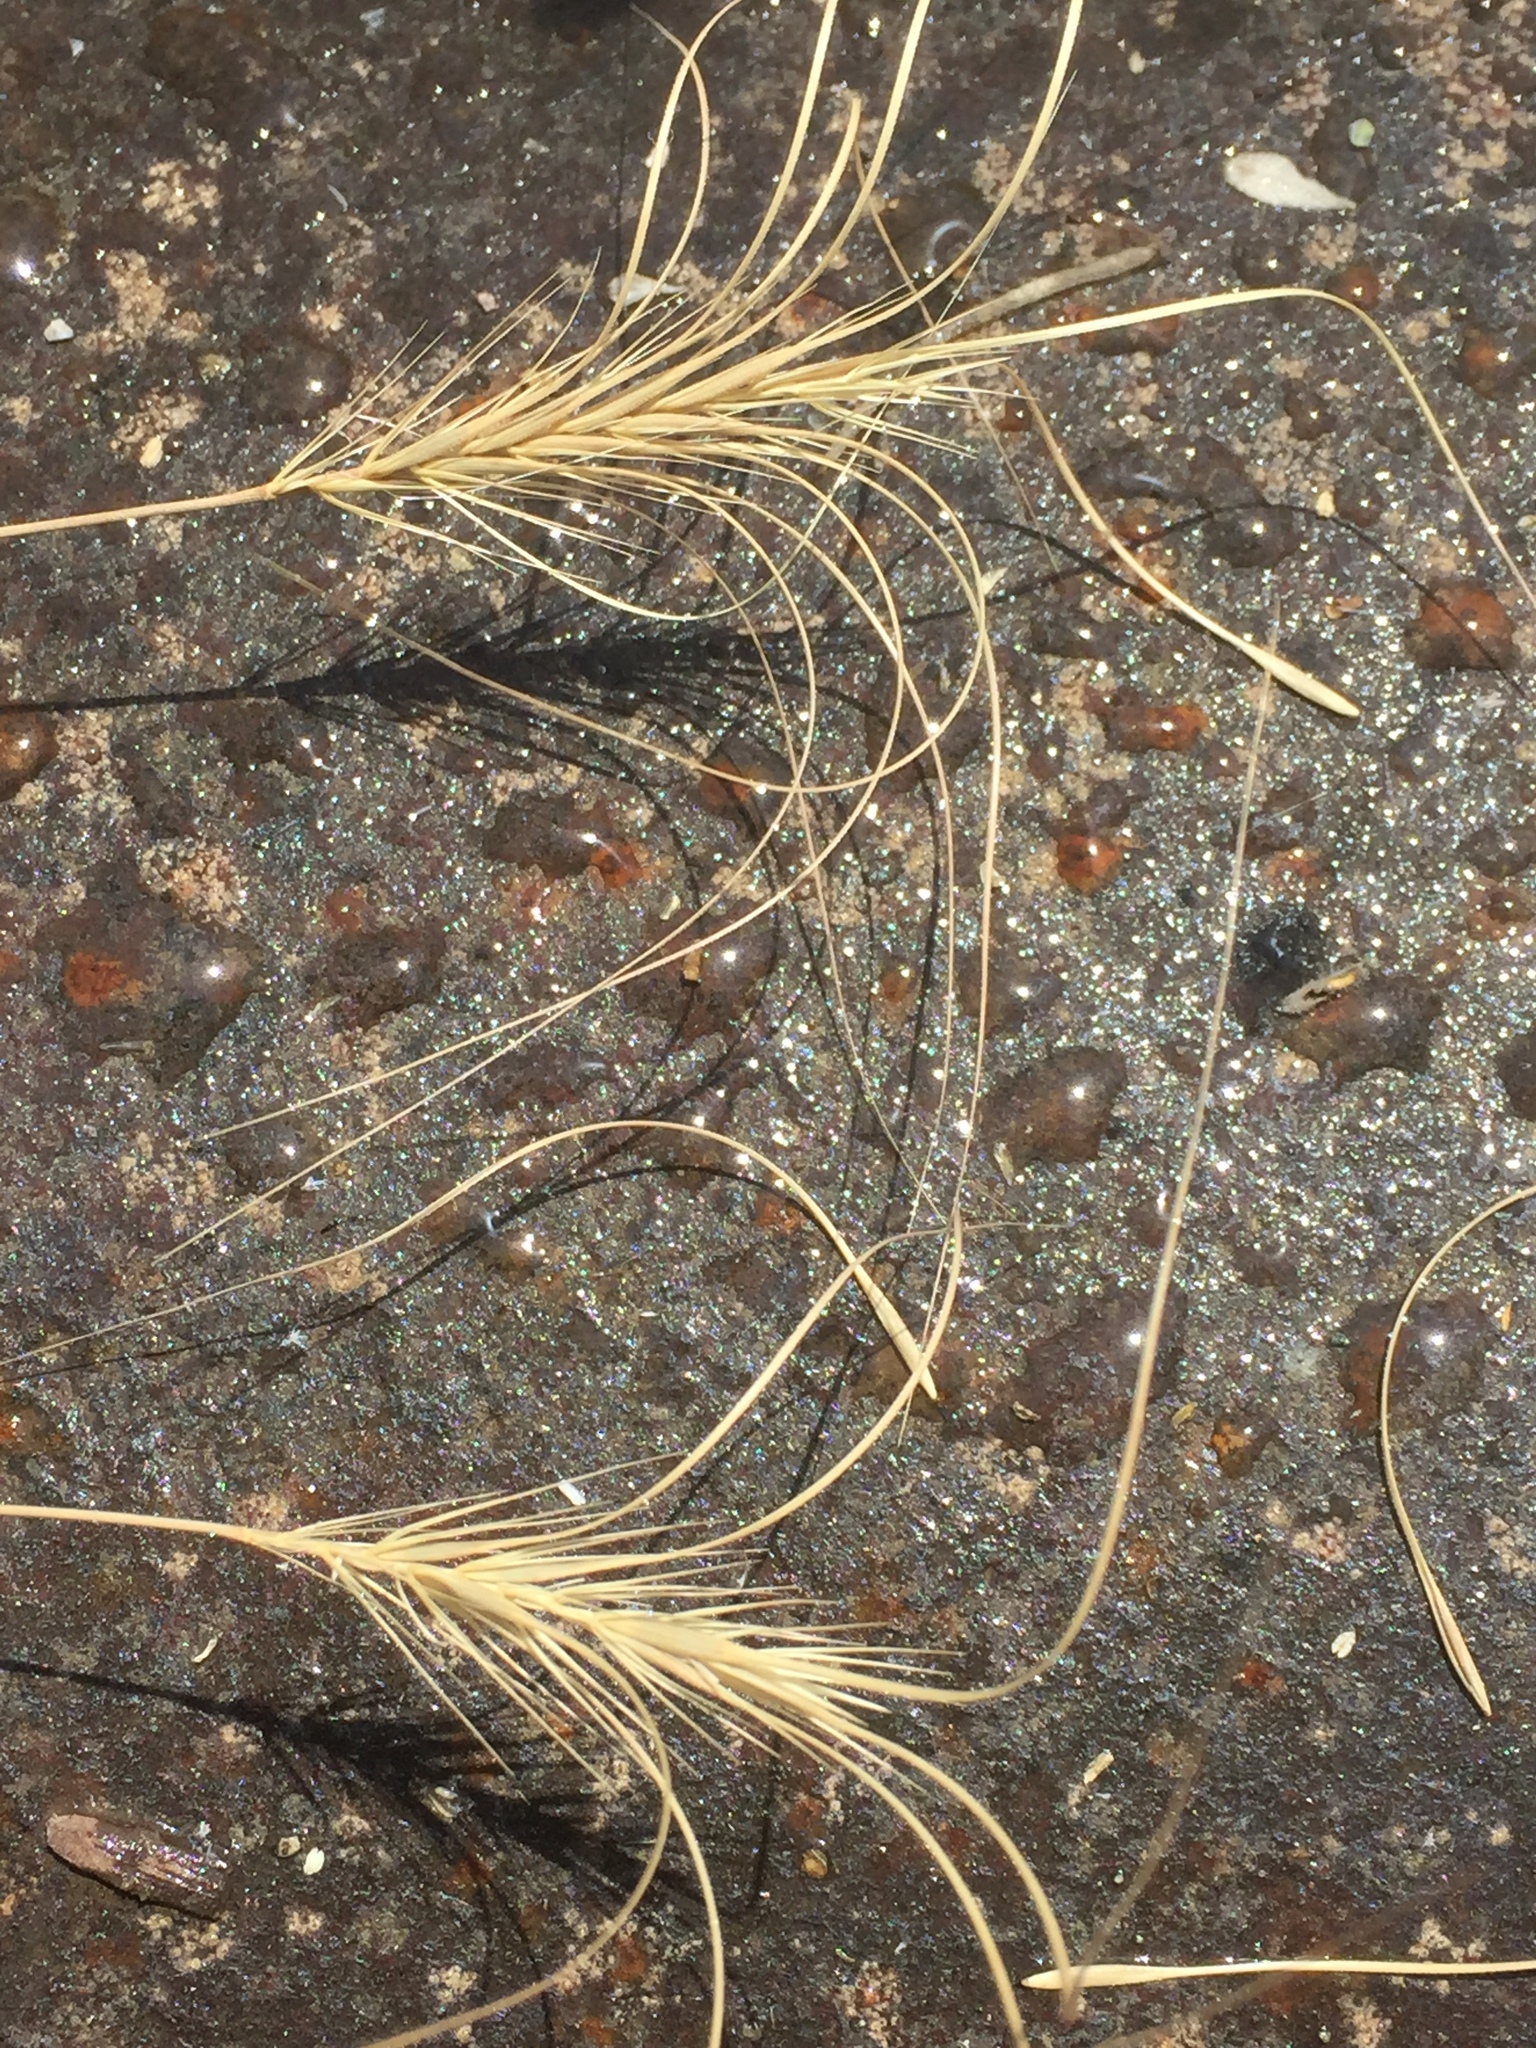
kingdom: Plantae
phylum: Tracheophyta
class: Liliopsida
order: Poales
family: Poaceae
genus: Taeniatherum
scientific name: Taeniatherum caput-medusae
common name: Medusahead
